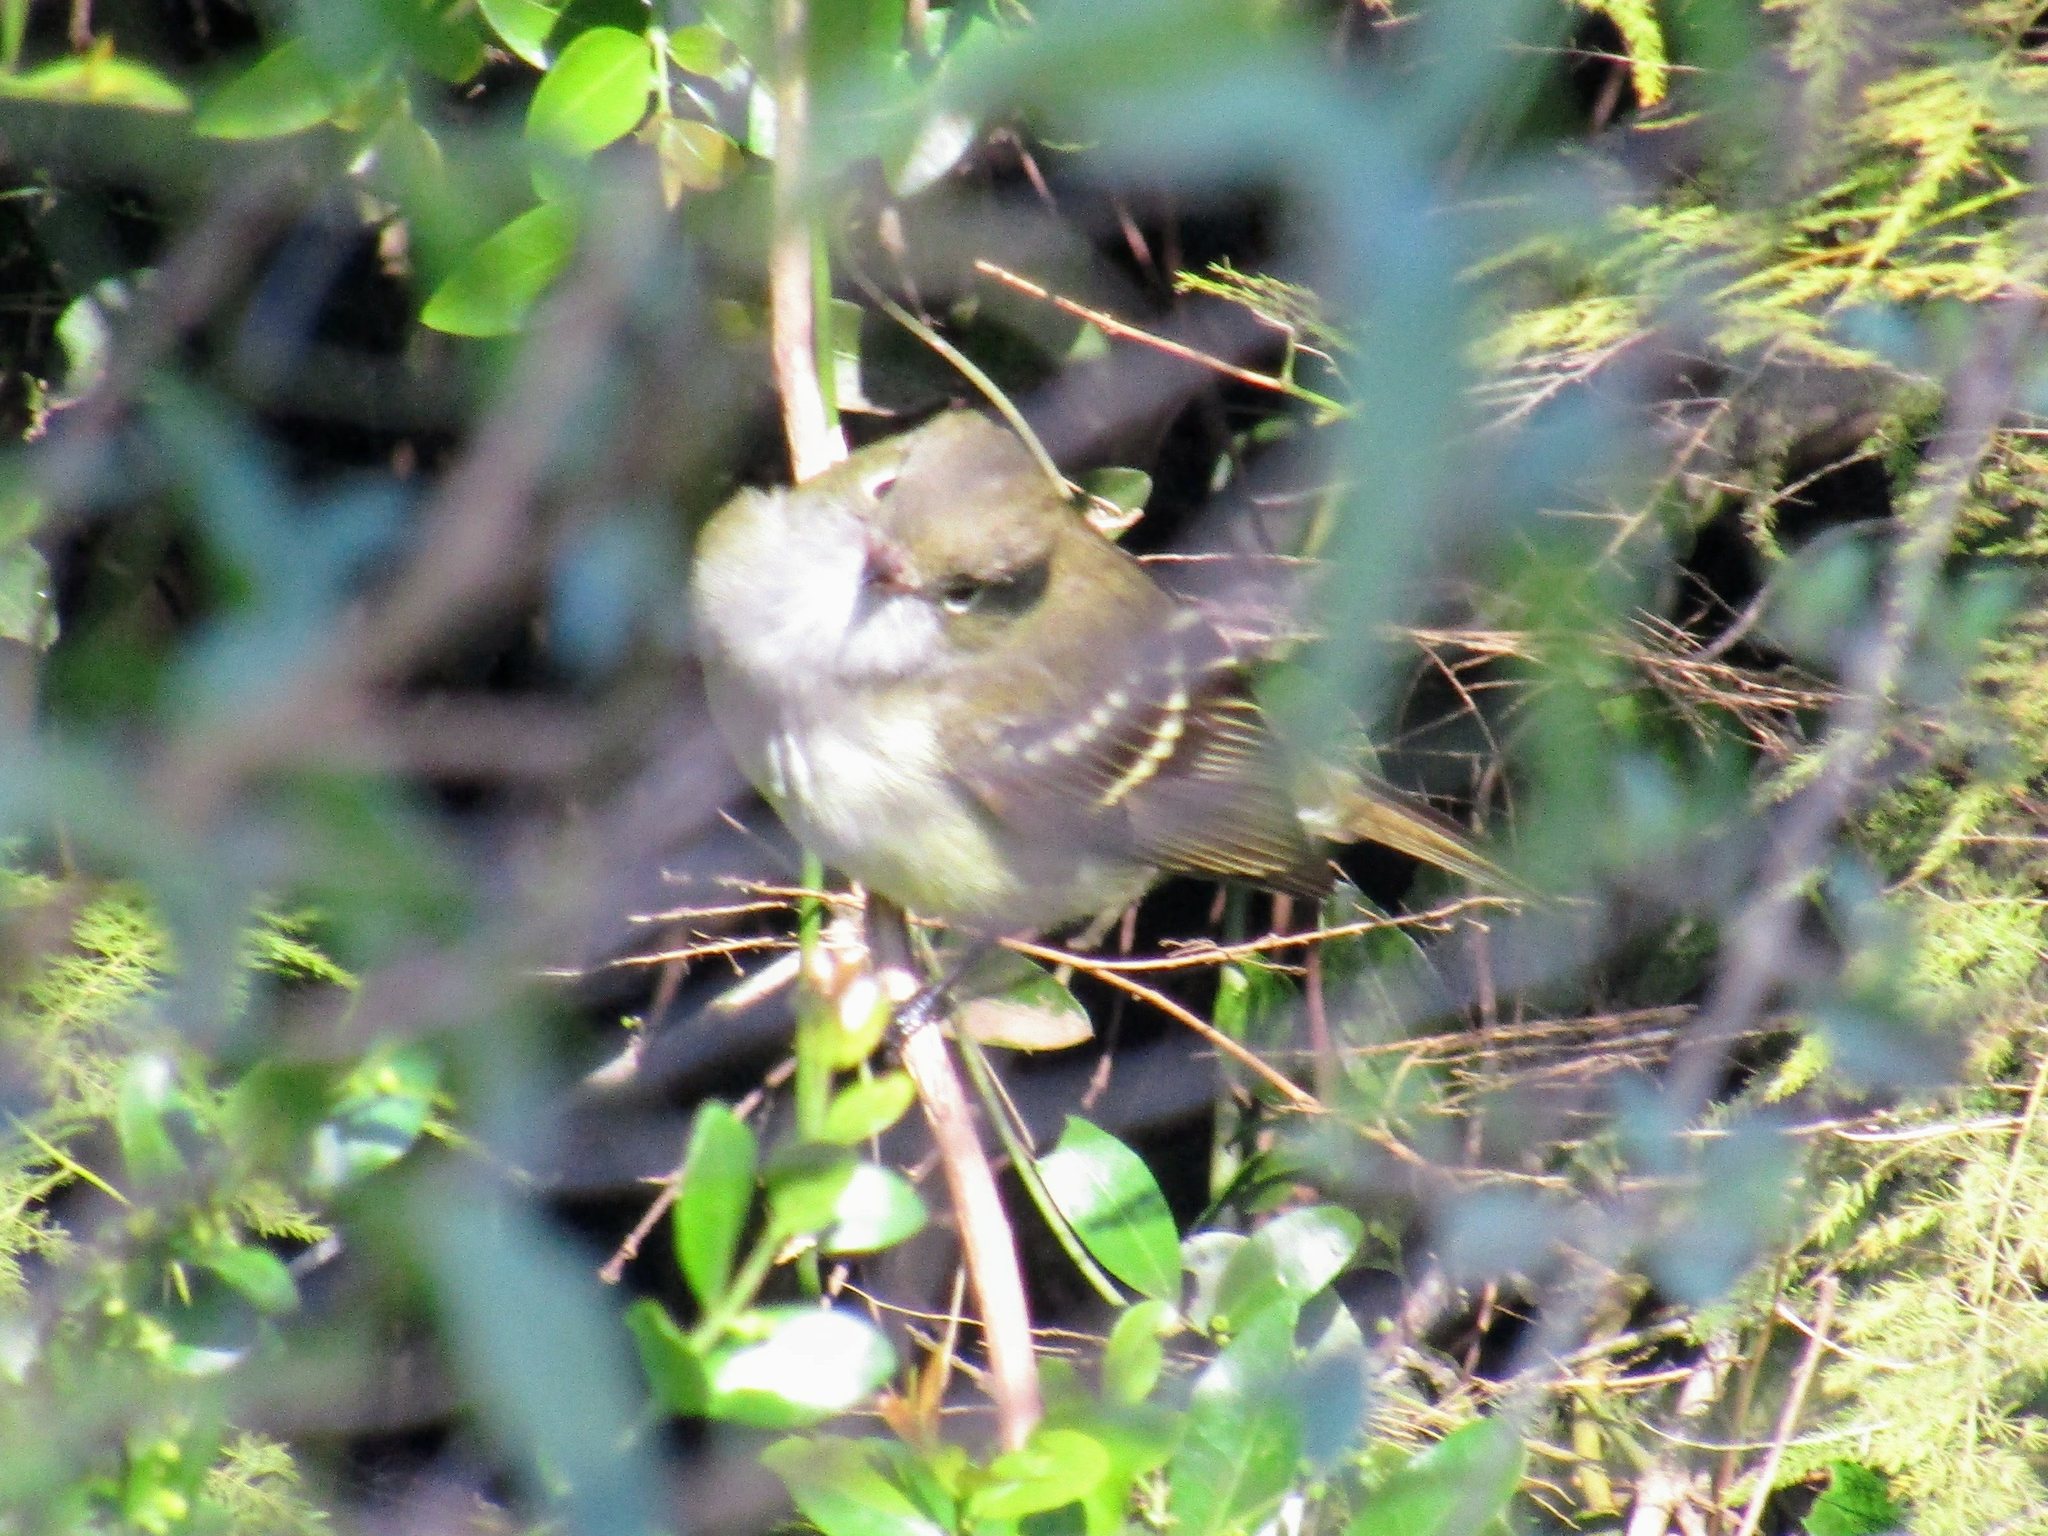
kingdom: Animalia
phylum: Chordata
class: Aves
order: Passeriformes
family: Tyrannidae
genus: Elaenia
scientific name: Elaenia parvirostris
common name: Small-billed elaenia
